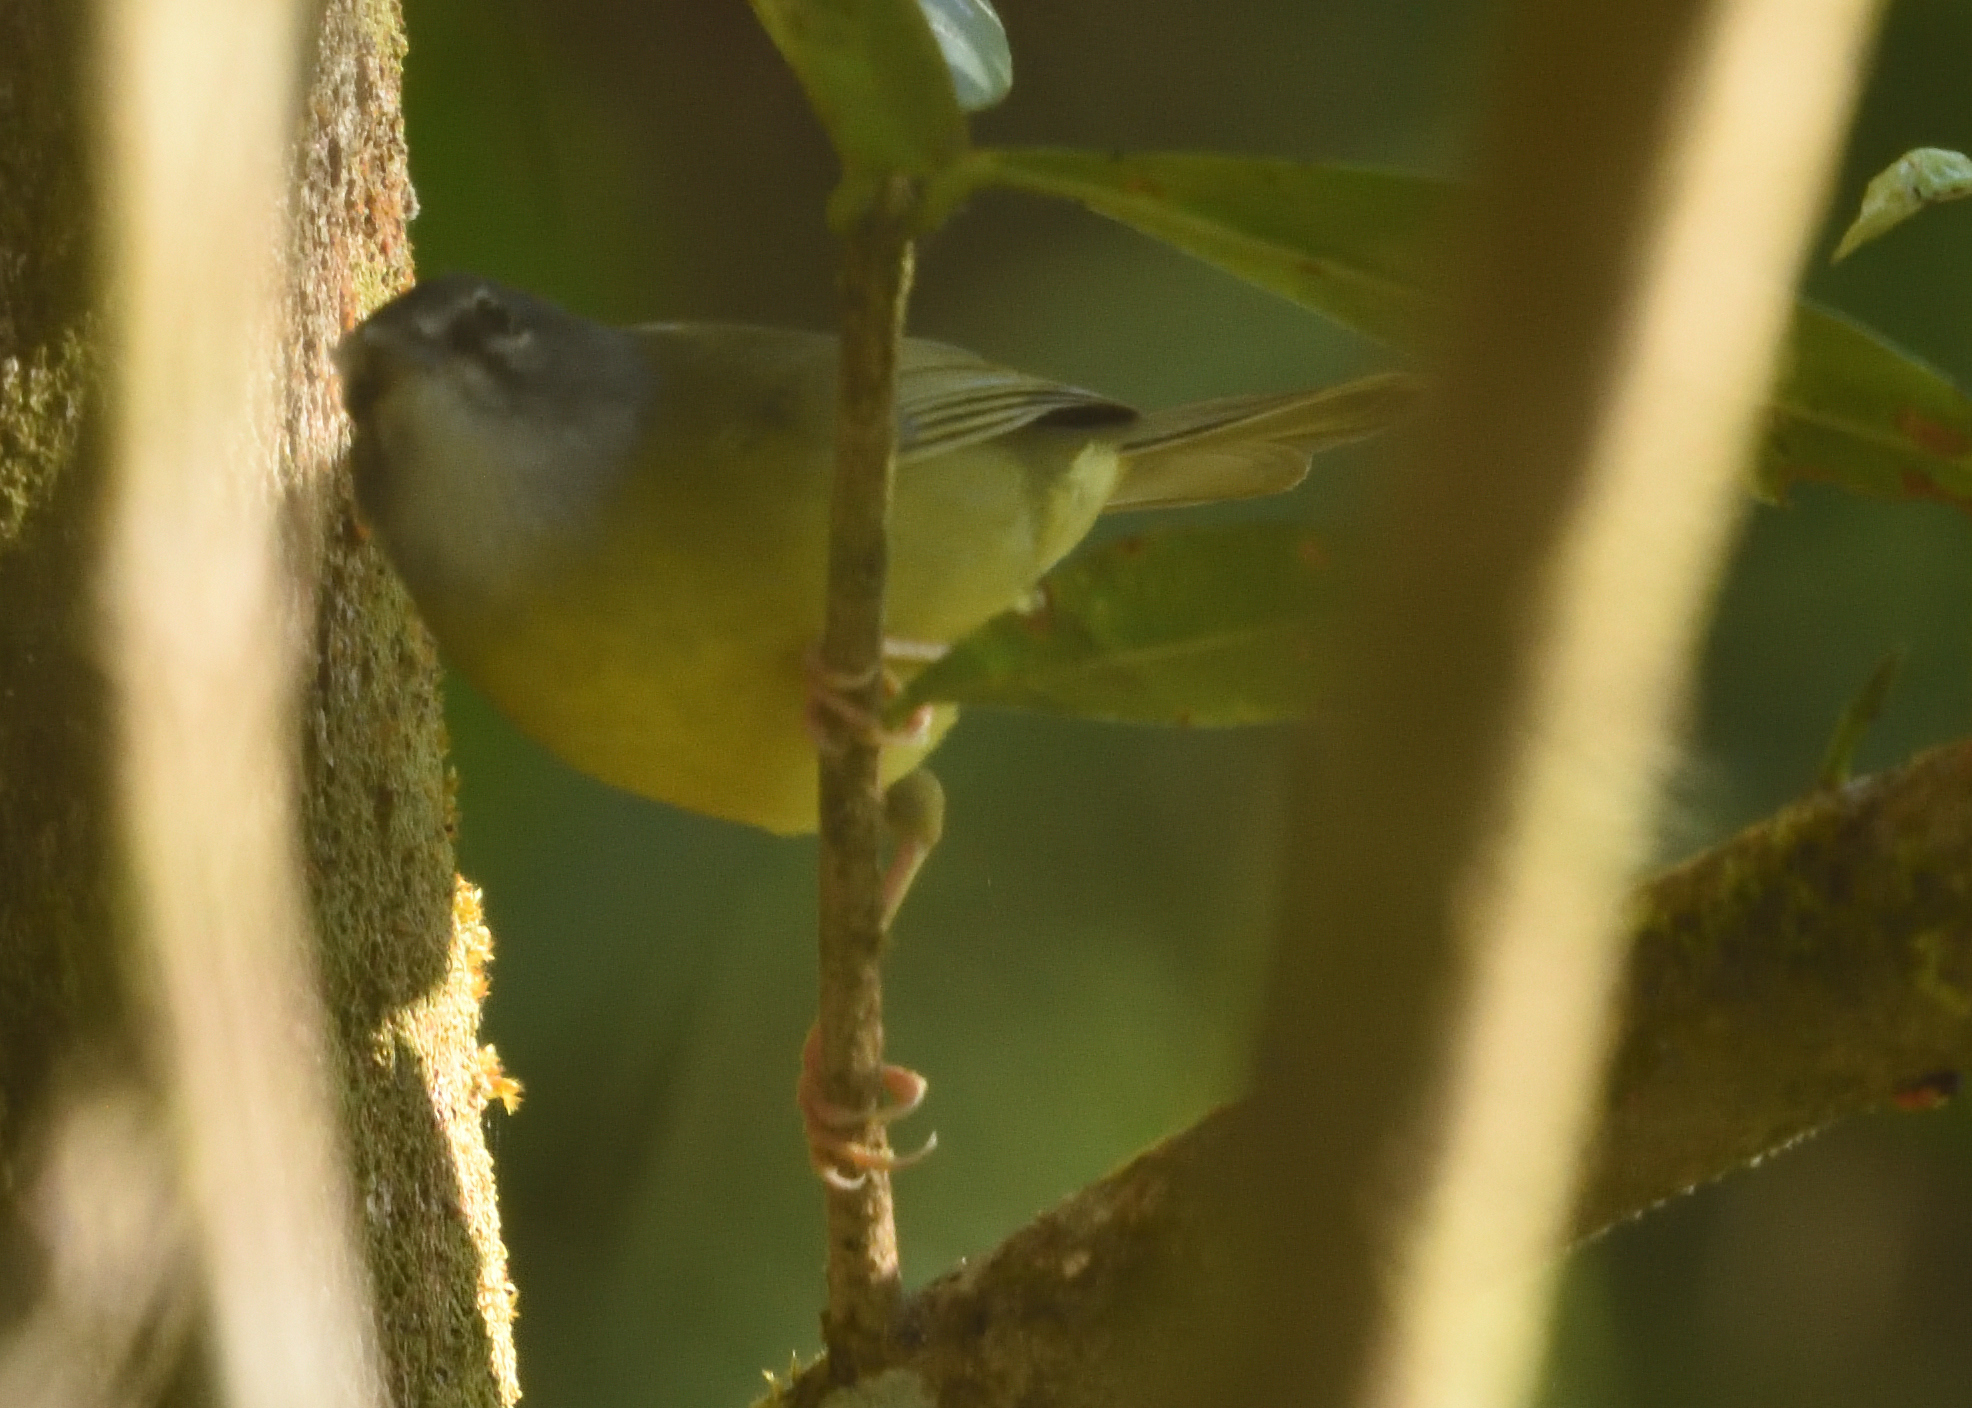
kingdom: Animalia
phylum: Chordata
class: Aves
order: Passeriformes
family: Parulidae
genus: Myiothlypis
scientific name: Myiothlypis conspicillata
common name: White-lored warbler
